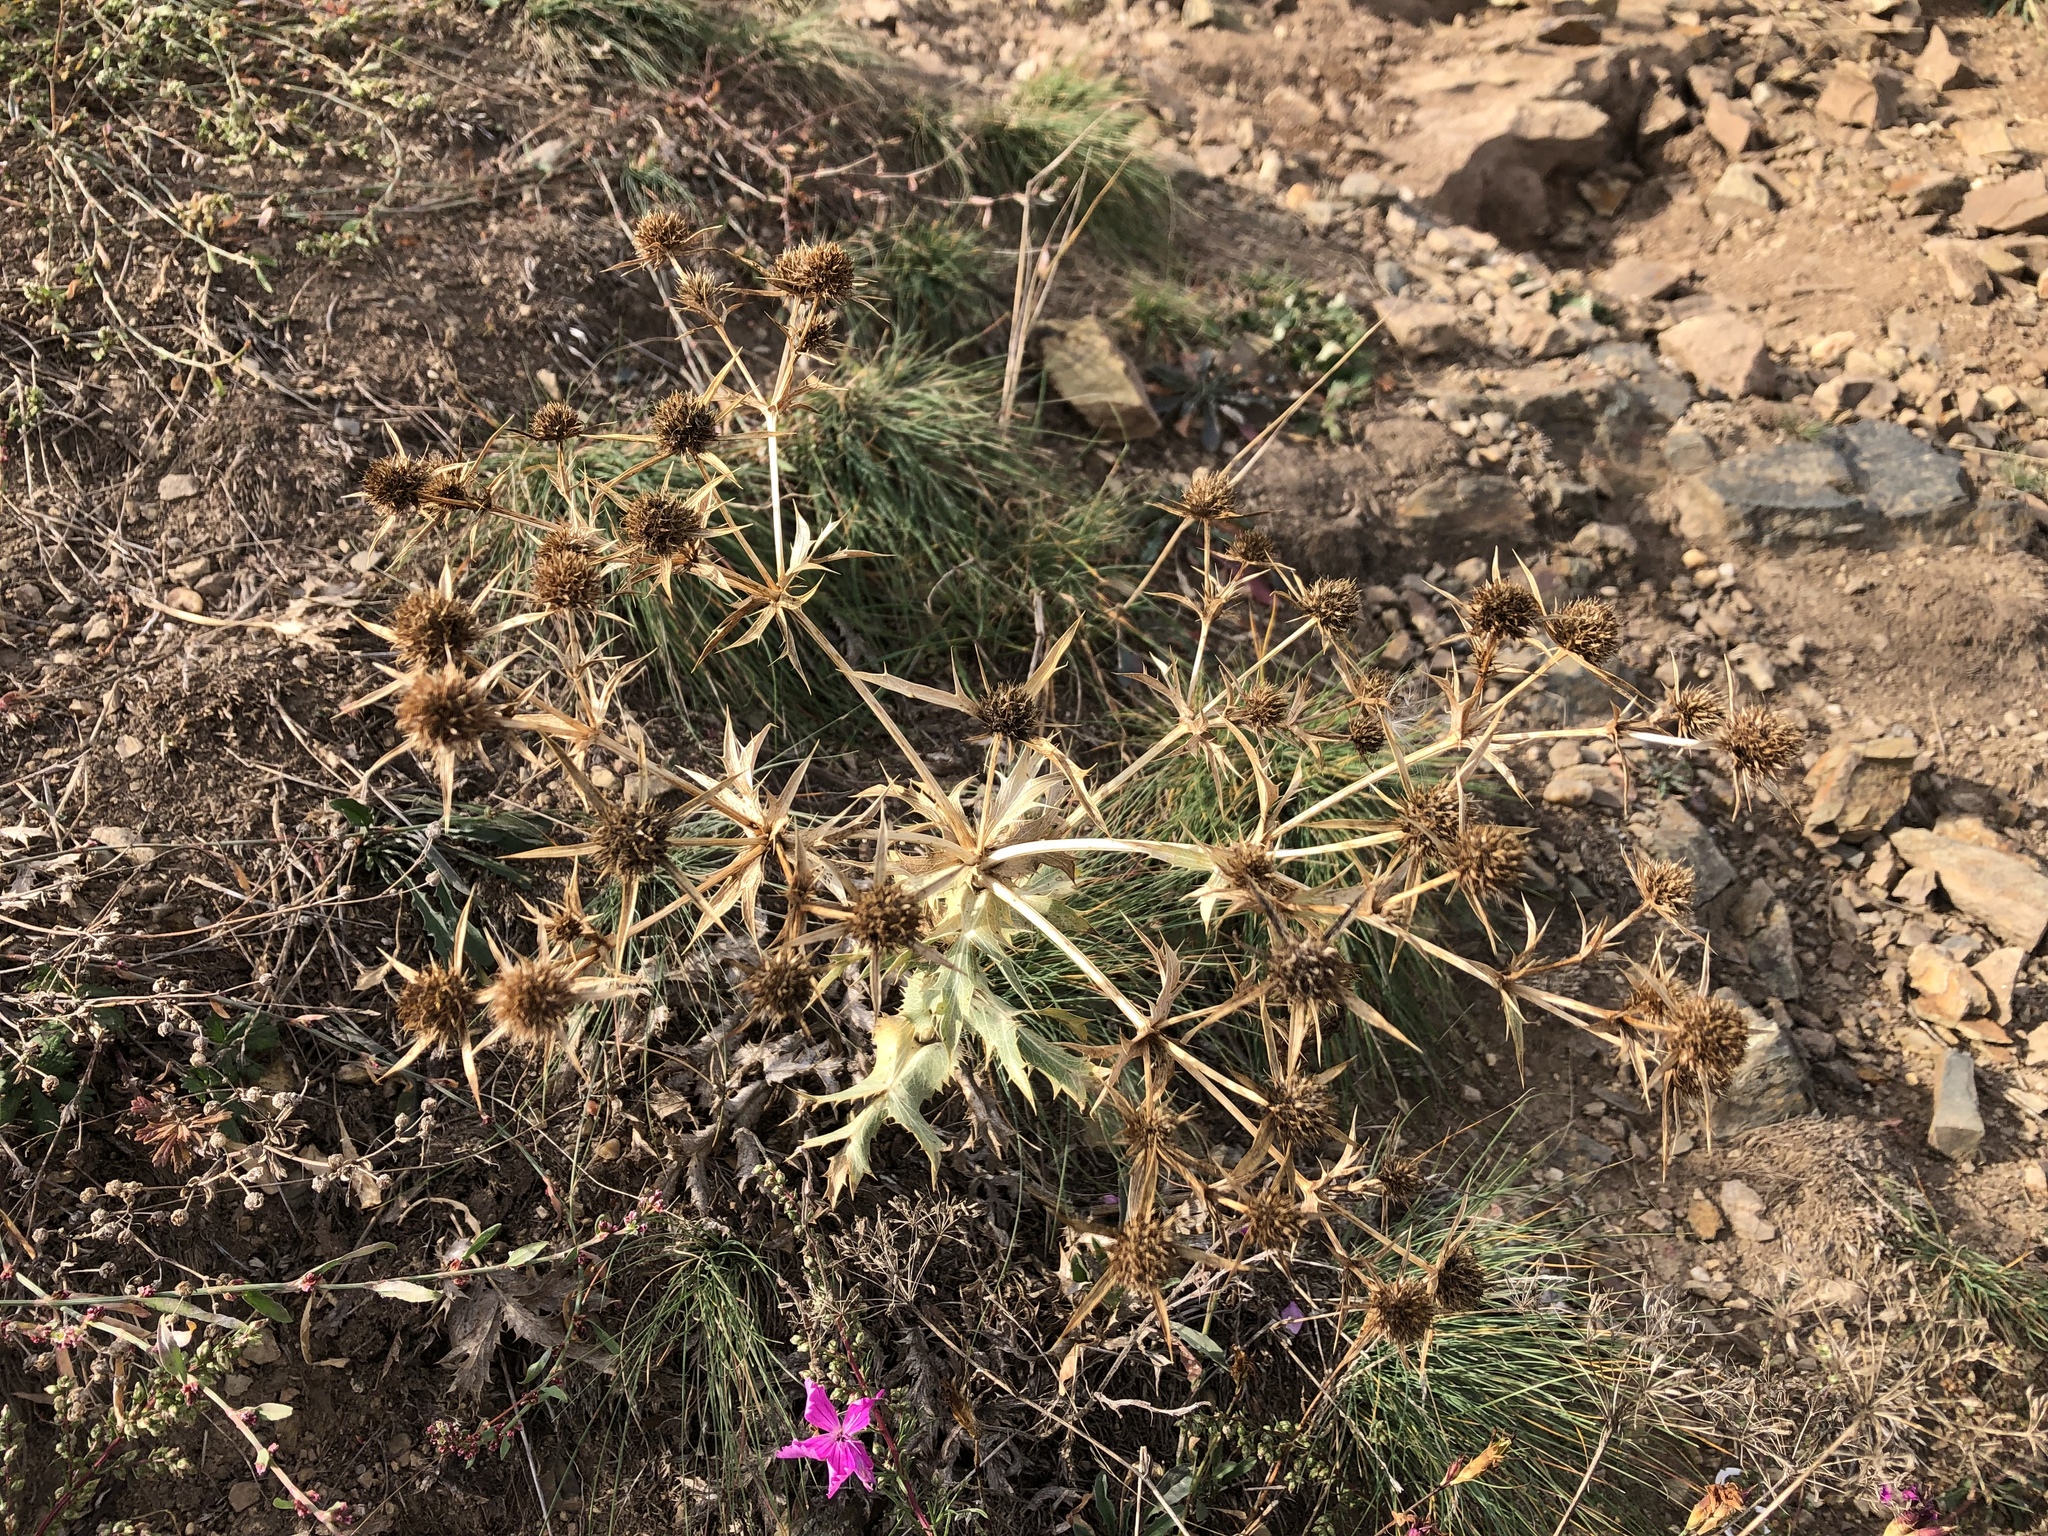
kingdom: Plantae
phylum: Tracheophyta
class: Magnoliopsida
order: Apiales
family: Apiaceae
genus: Eryngium
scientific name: Eryngium campestre
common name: Field eryngo
